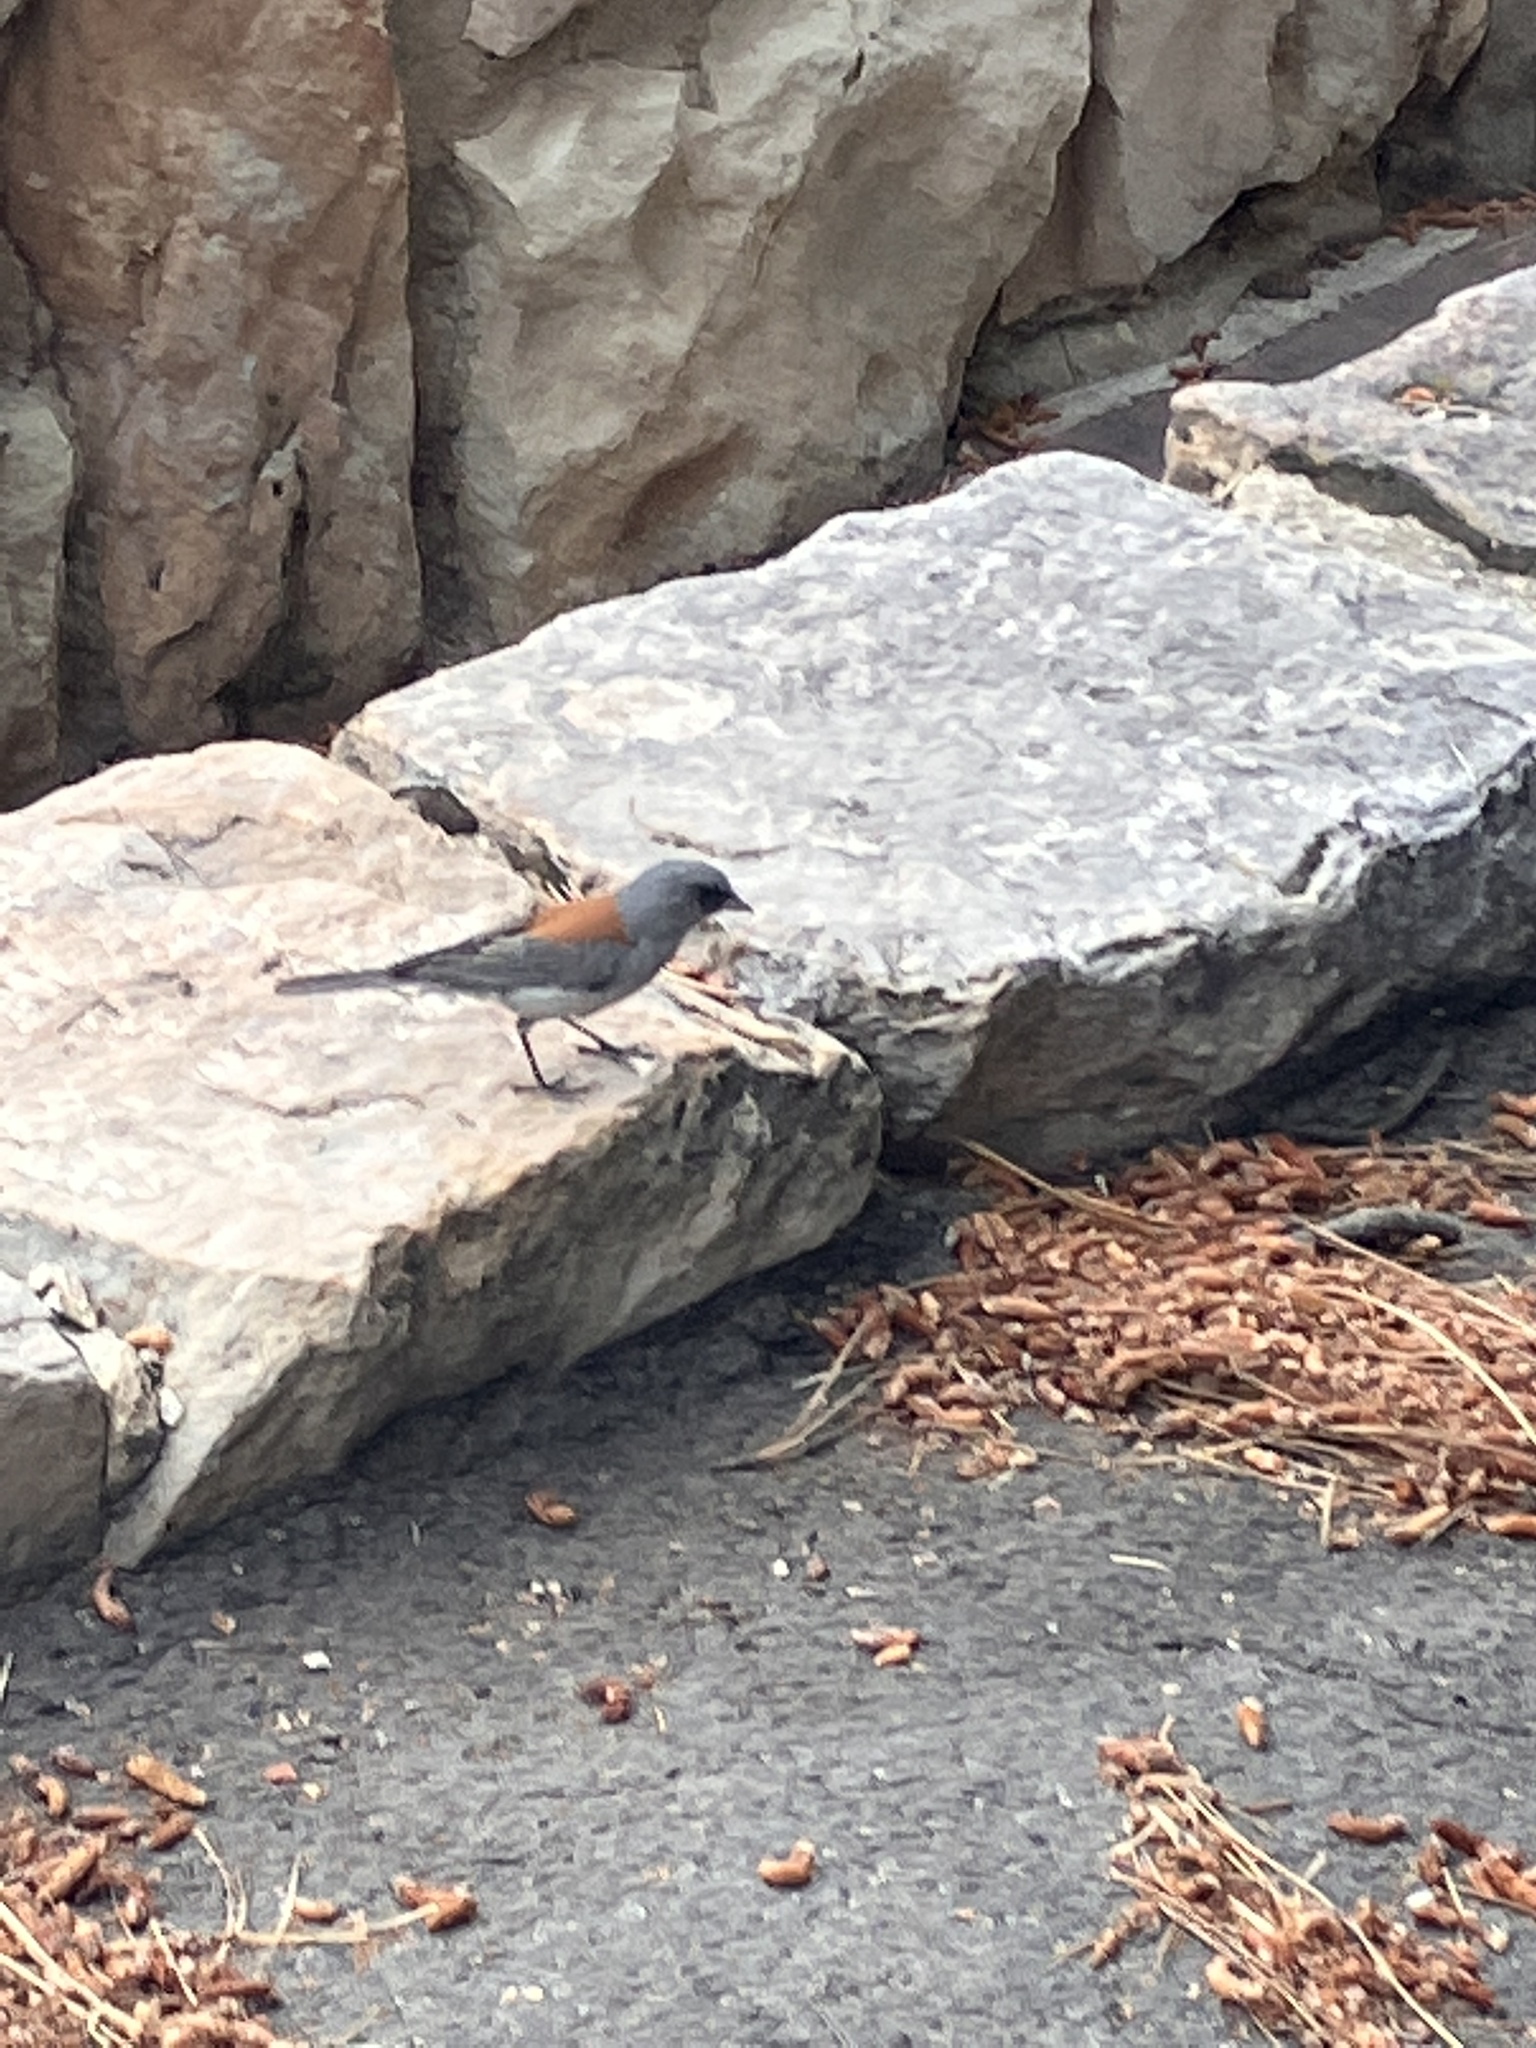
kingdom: Animalia
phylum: Chordata
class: Aves
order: Passeriformes
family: Passerellidae
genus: Junco
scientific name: Junco hyemalis
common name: Dark-eyed junco
